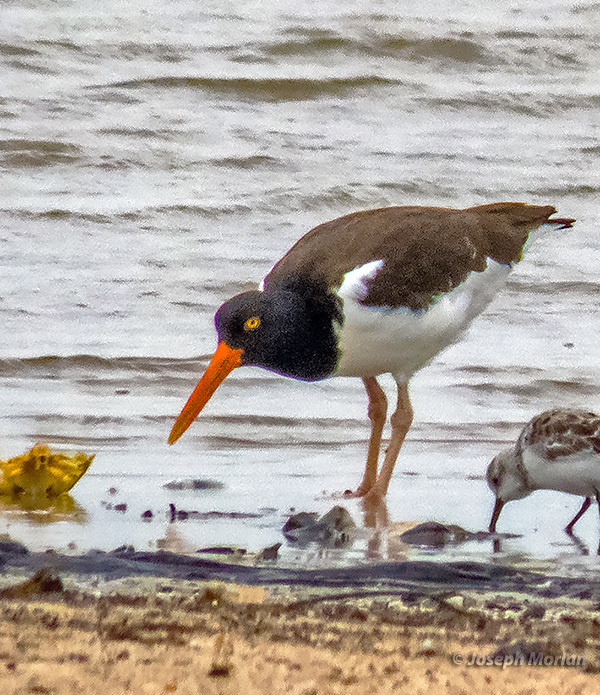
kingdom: Animalia
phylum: Chordata
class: Aves
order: Charadriiformes
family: Haematopodidae
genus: Haematopus
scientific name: Haematopus palliatus
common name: American oystercatcher
